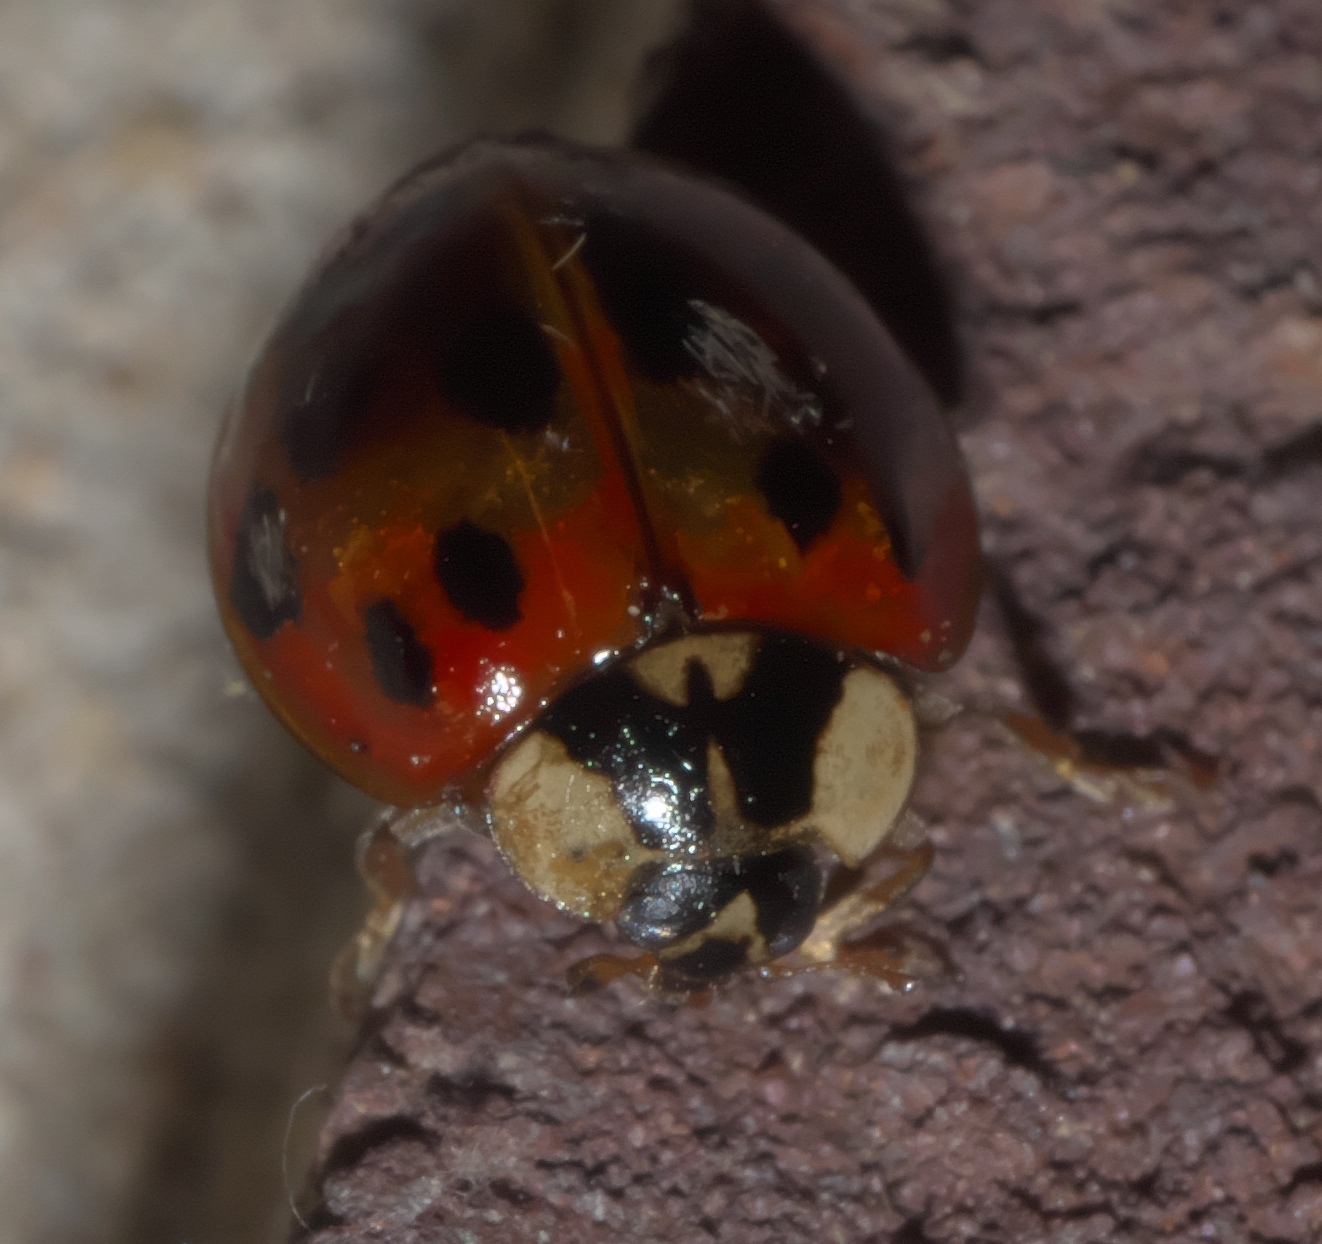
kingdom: Animalia
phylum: Arthropoda
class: Insecta
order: Coleoptera
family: Coccinellidae
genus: Harmonia
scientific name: Harmonia axyridis
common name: Harlequin ladybird
